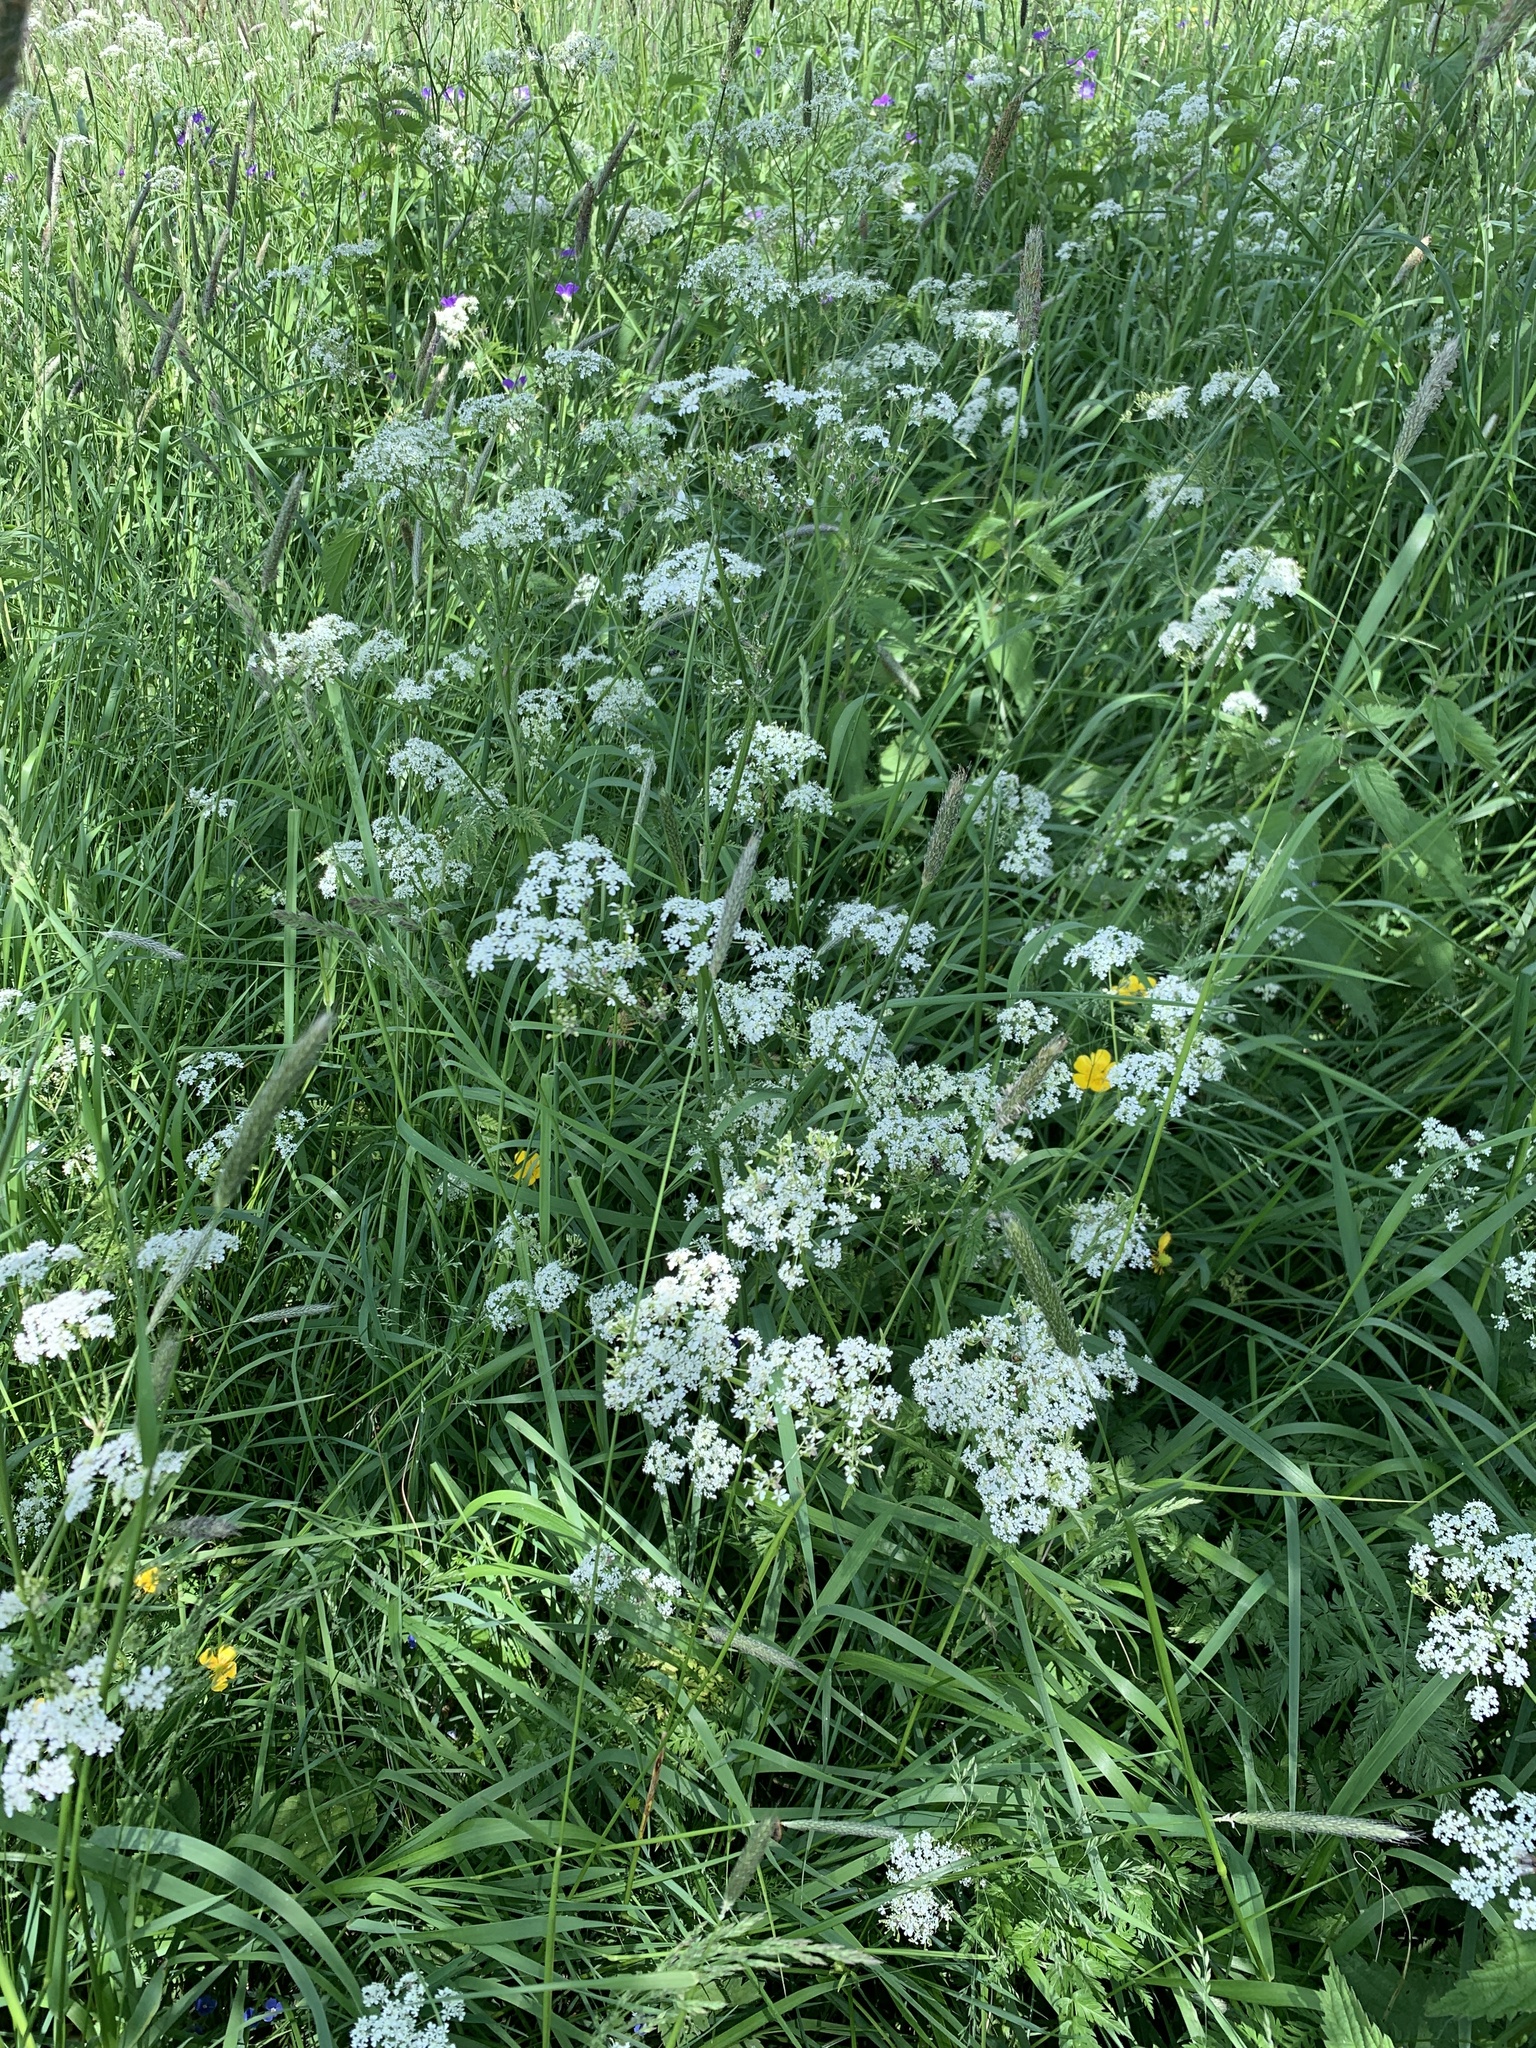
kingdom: Plantae
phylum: Tracheophyta
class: Magnoliopsida
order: Apiales
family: Apiaceae
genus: Anthriscus
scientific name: Anthriscus sylvestris
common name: Cow parsley
